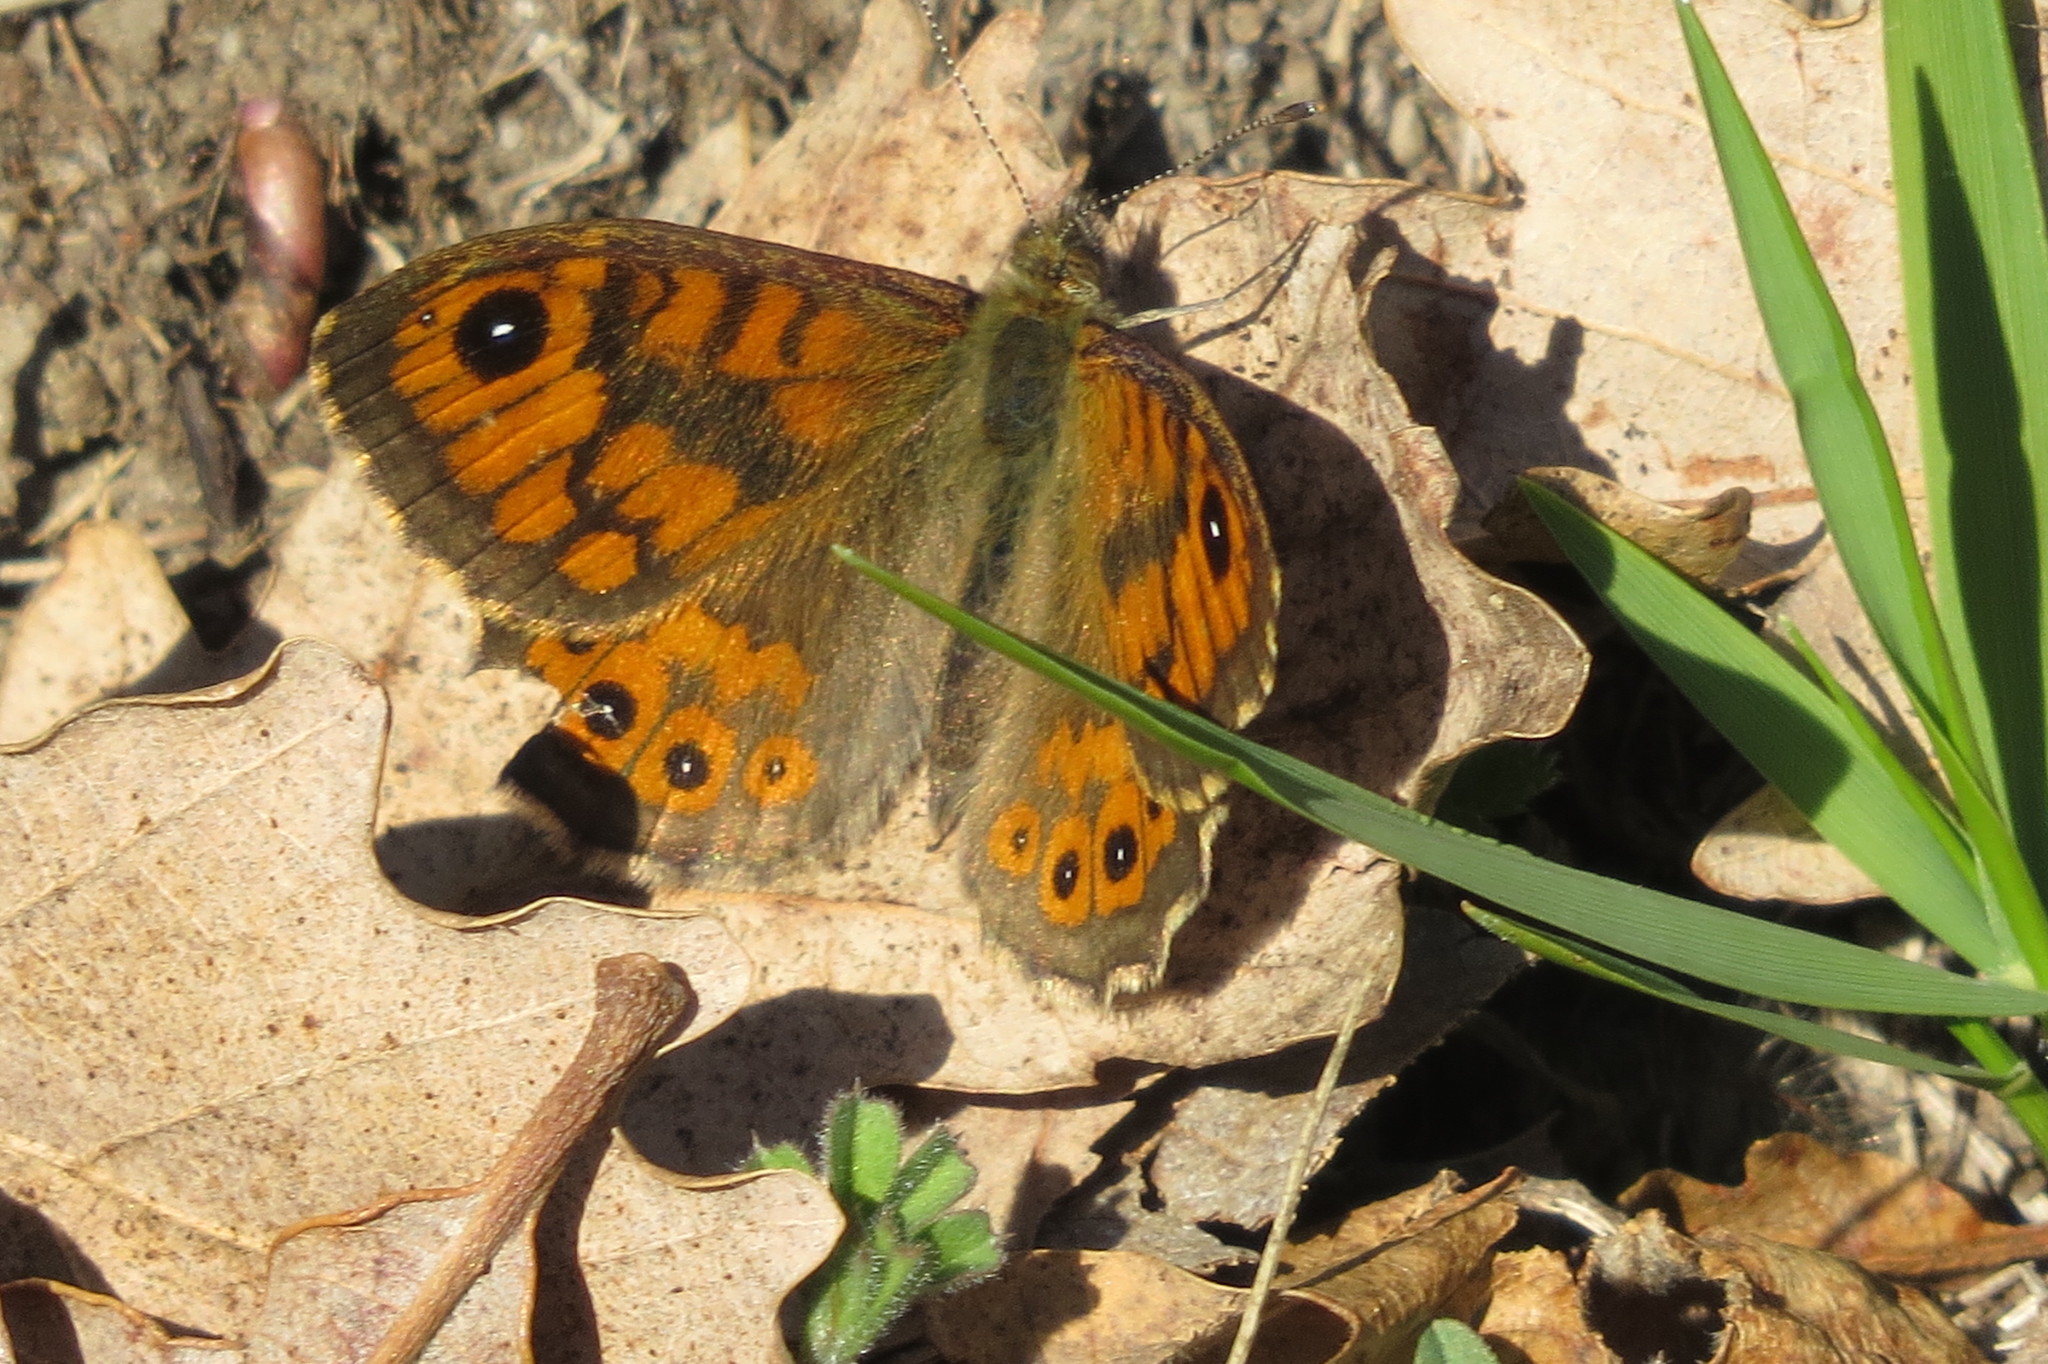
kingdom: Animalia
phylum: Arthropoda
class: Insecta
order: Lepidoptera
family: Nymphalidae
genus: Pararge
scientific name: Pararge Lasiommata megera
